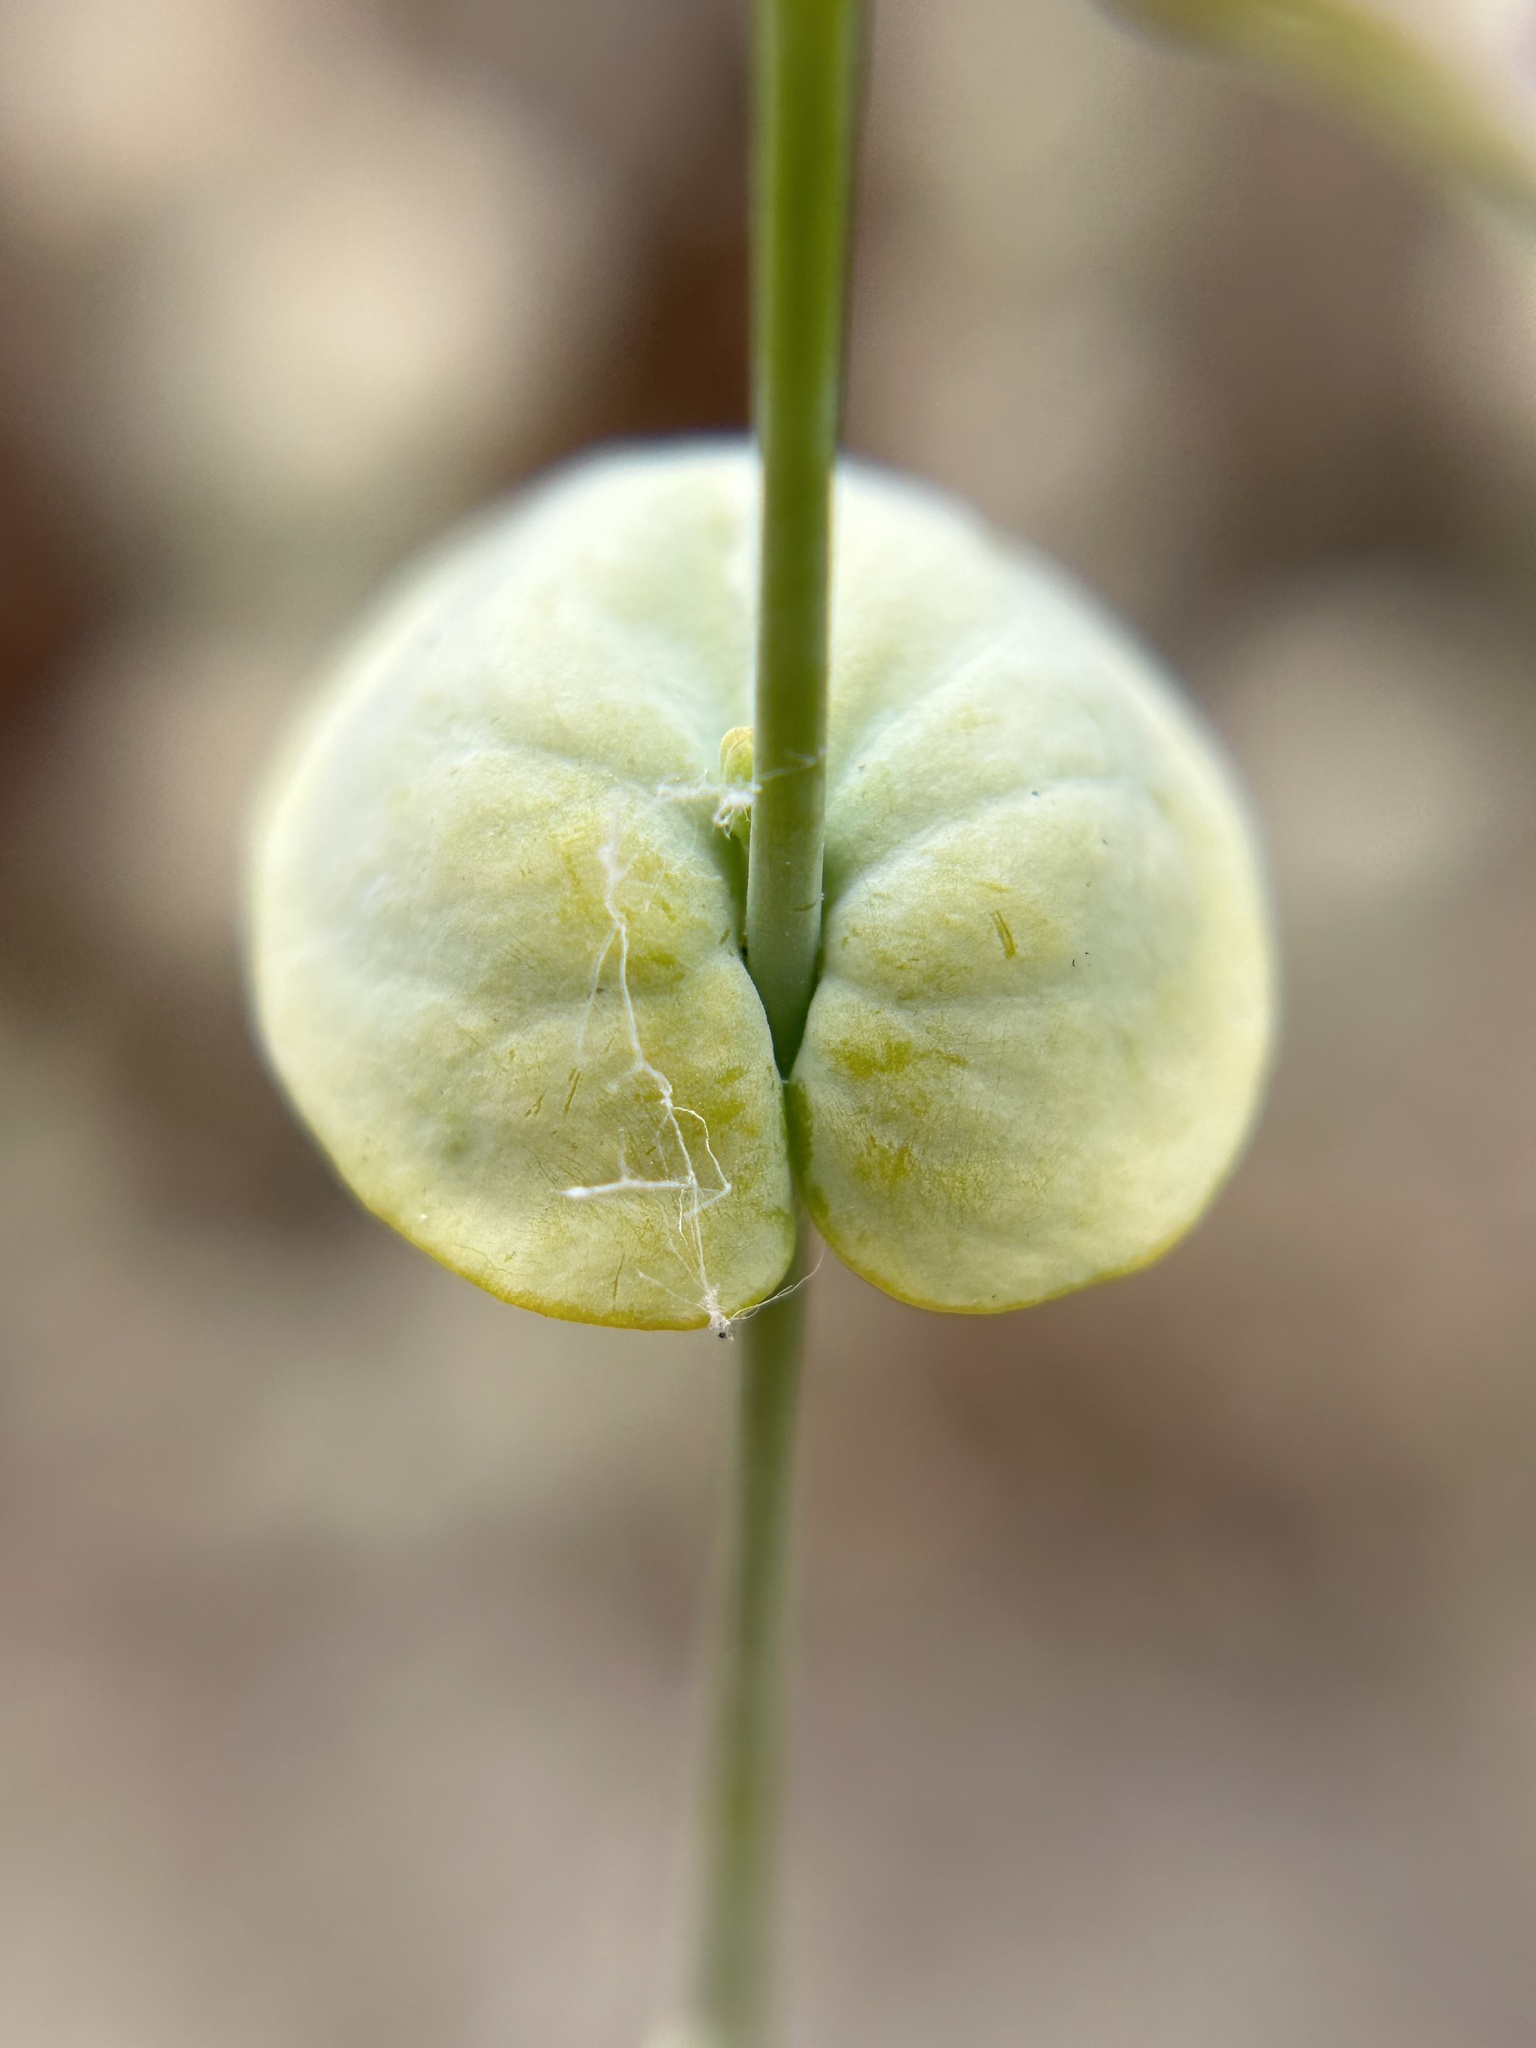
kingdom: Plantae
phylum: Tracheophyta
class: Magnoliopsida
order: Brassicales
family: Brassicaceae
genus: Streptanthus
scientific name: Streptanthus diversifolius
